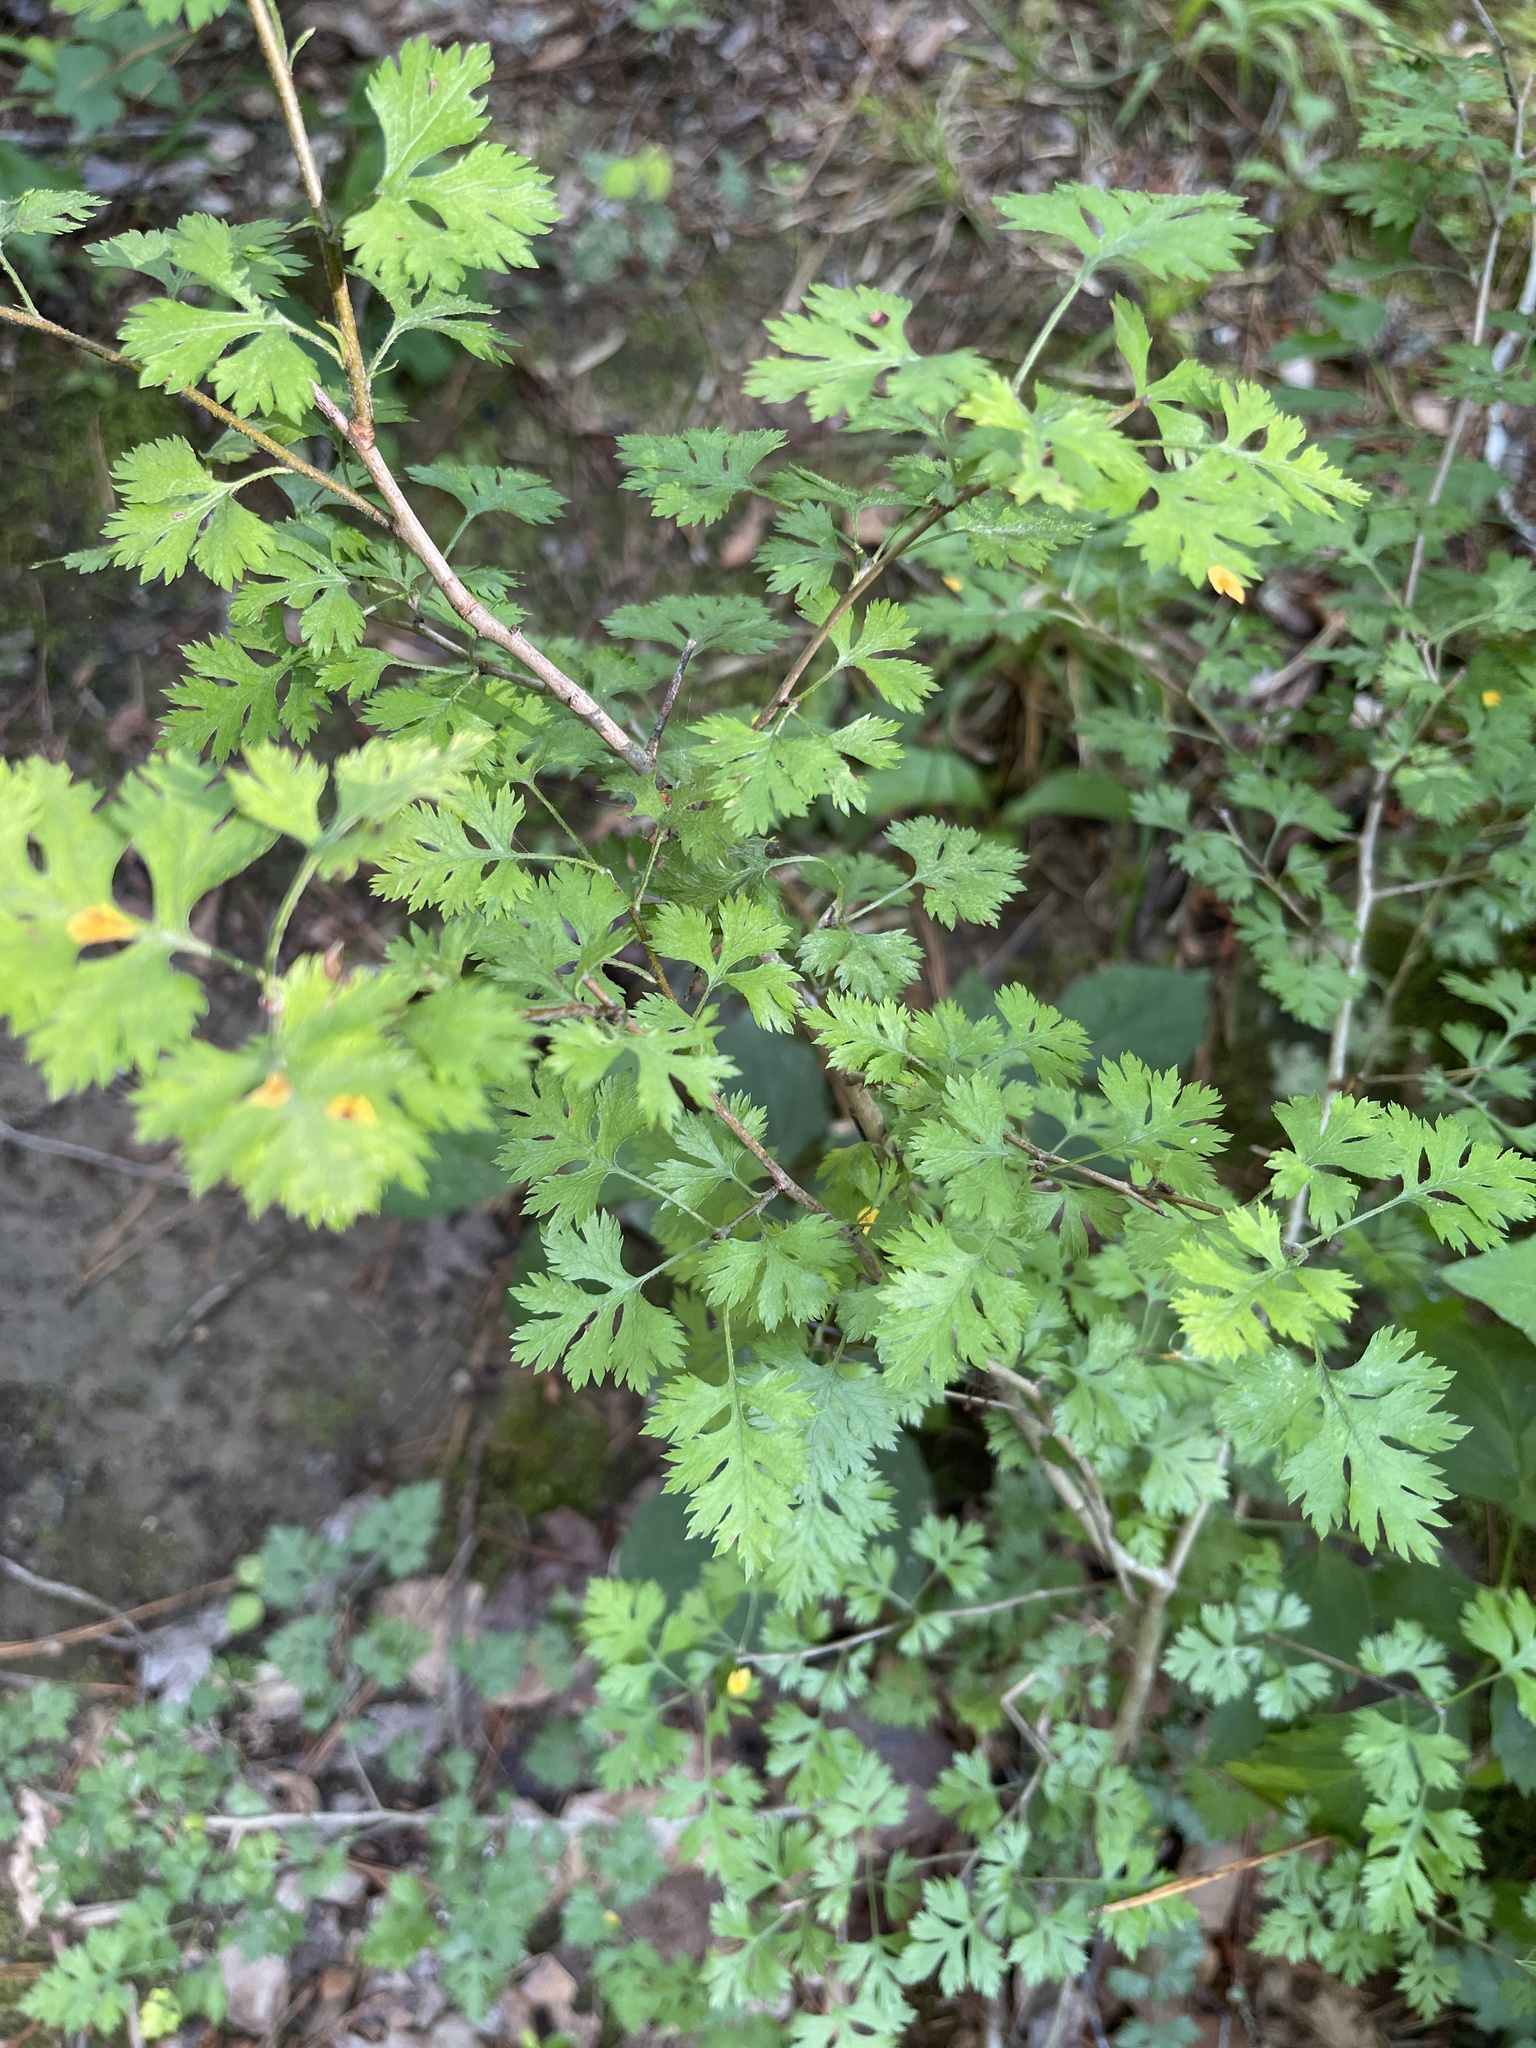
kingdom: Plantae
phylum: Tracheophyta
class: Magnoliopsida
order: Rosales
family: Rosaceae
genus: Crataegus
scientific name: Crataegus marshallii
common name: Parsley-hawthorn
